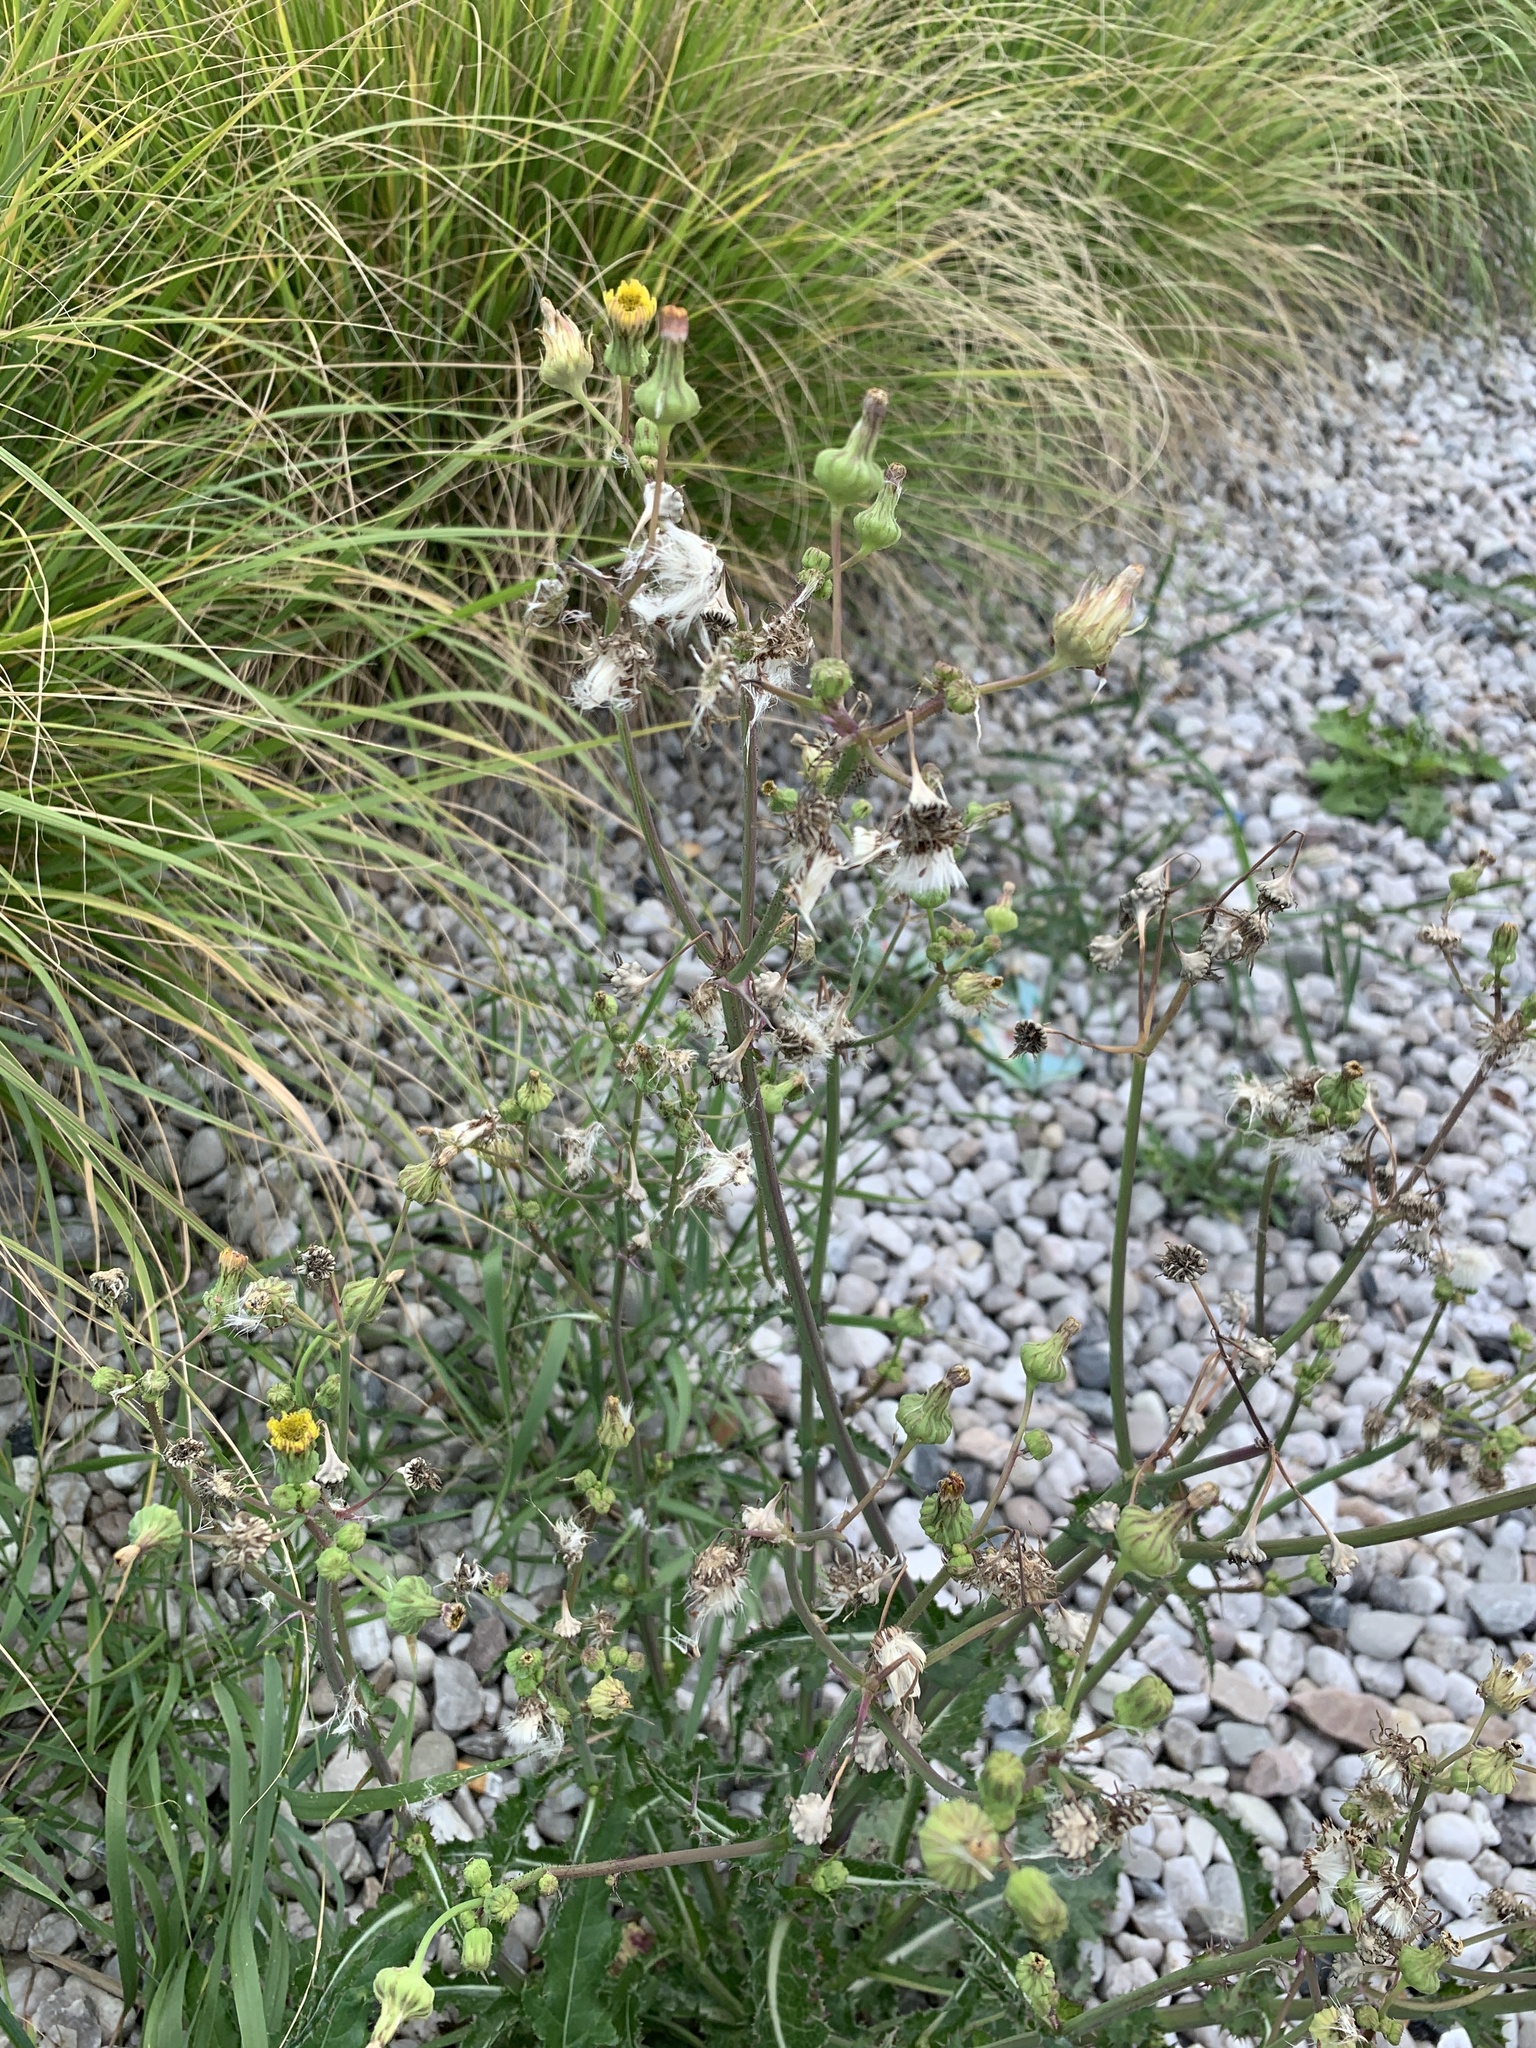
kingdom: Plantae
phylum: Tracheophyta
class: Magnoliopsida
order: Asterales
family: Asteraceae
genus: Sonchus
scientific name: Sonchus asper
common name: Prickly sow-thistle
